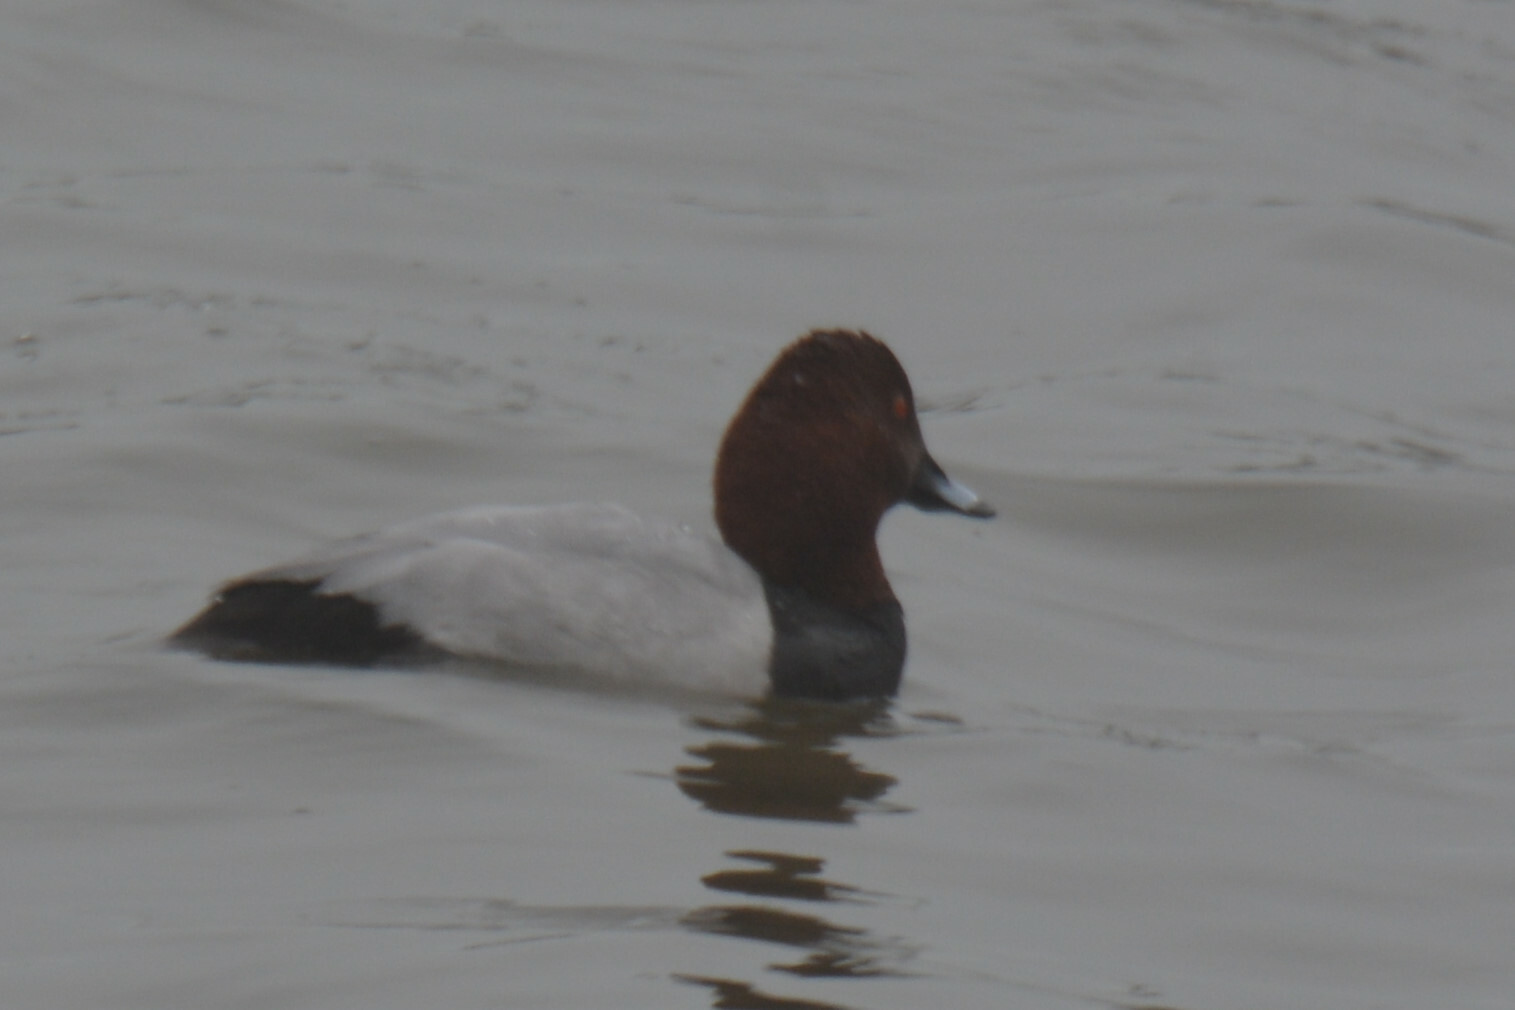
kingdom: Animalia
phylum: Chordata
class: Aves
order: Anseriformes
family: Anatidae
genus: Aythya
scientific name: Aythya ferina
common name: Common pochard
